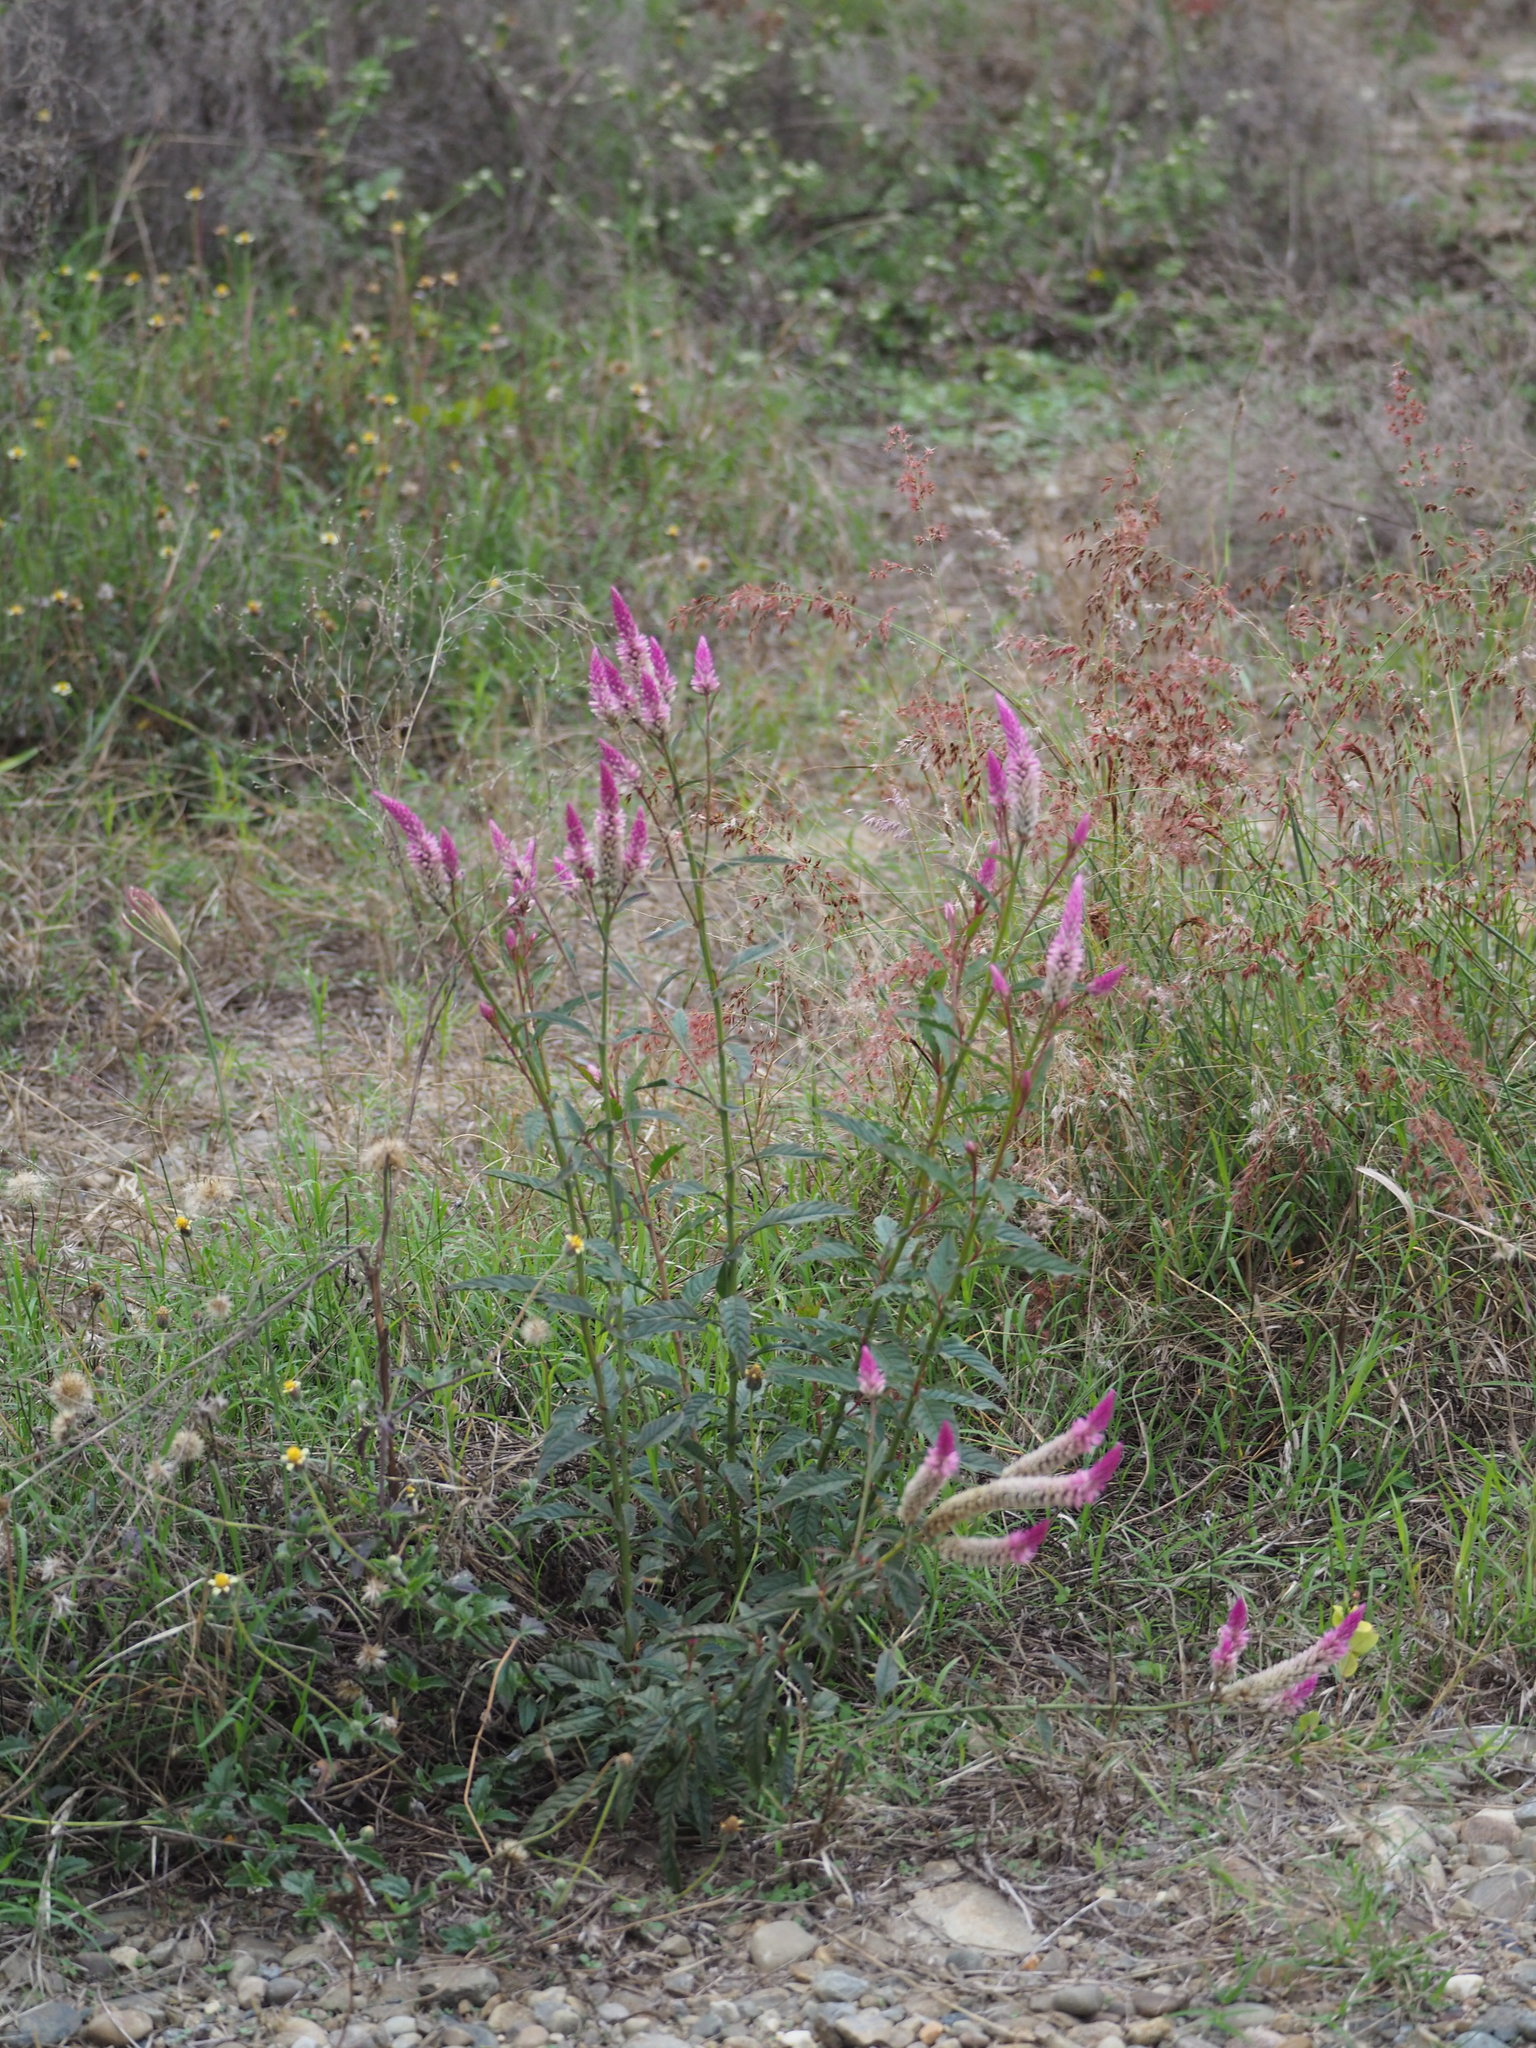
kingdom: Plantae
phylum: Tracheophyta
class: Magnoliopsida
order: Caryophyllales
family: Amaranthaceae
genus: Celosia
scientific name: Celosia argentea
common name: Feather cockscomb
